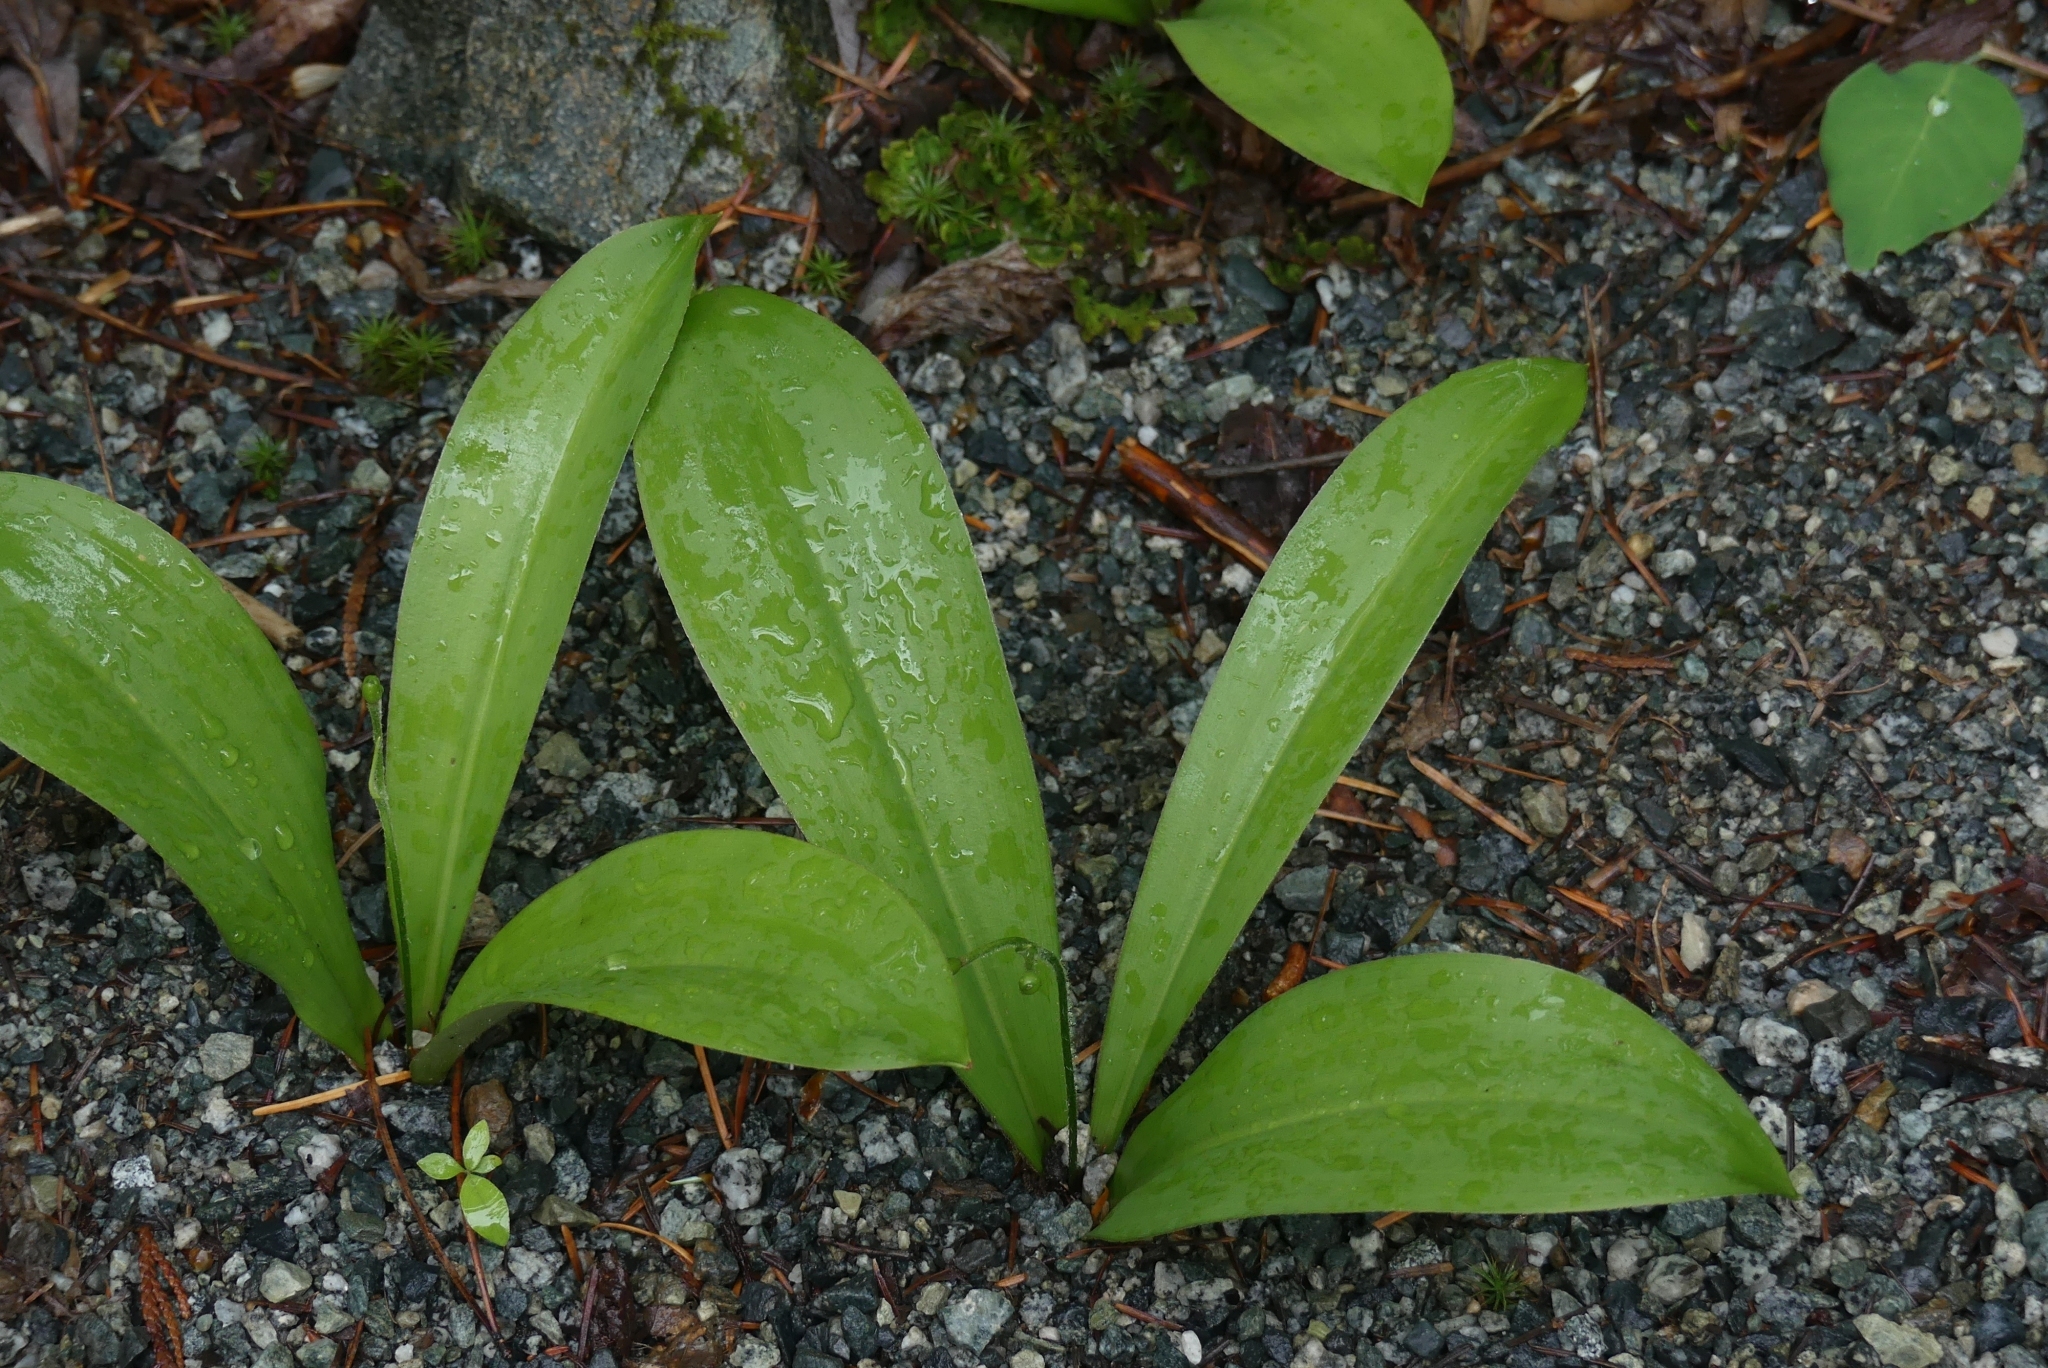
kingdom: Plantae
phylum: Tracheophyta
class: Liliopsida
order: Liliales
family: Liliaceae
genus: Clintonia
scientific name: Clintonia uniflora
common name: Queen's cup
